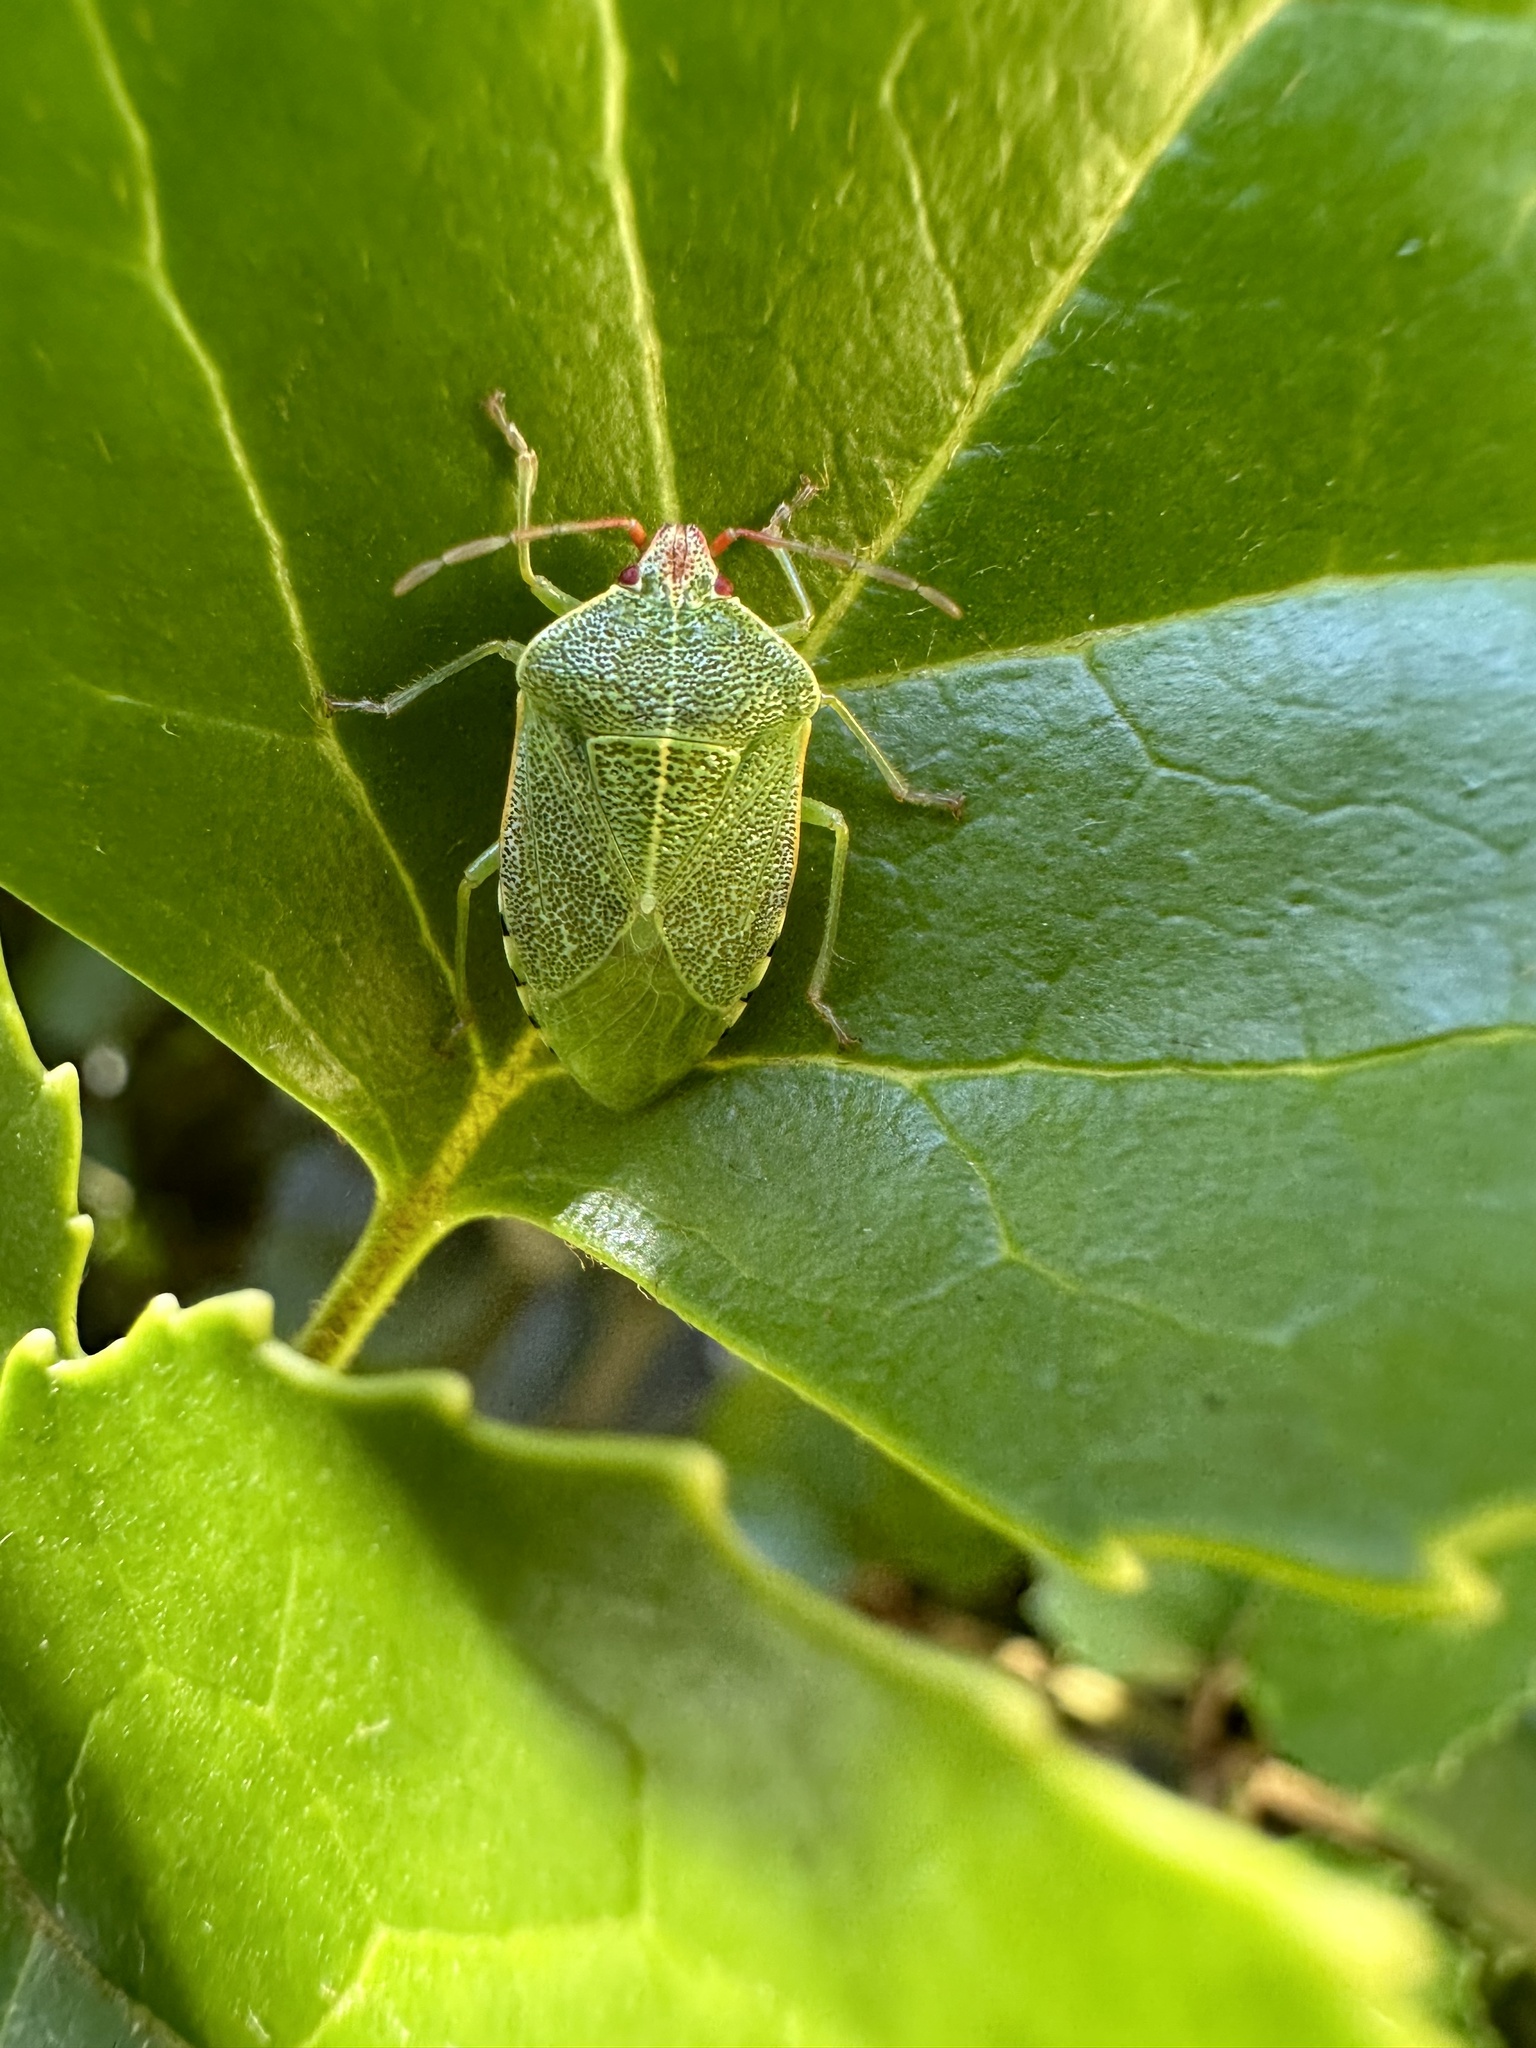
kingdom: Animalia
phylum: Arthropoda
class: Insecta
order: Hemiptera
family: Acanthosomatidae
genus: Sinopla
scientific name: Sinopla perpunctatus
